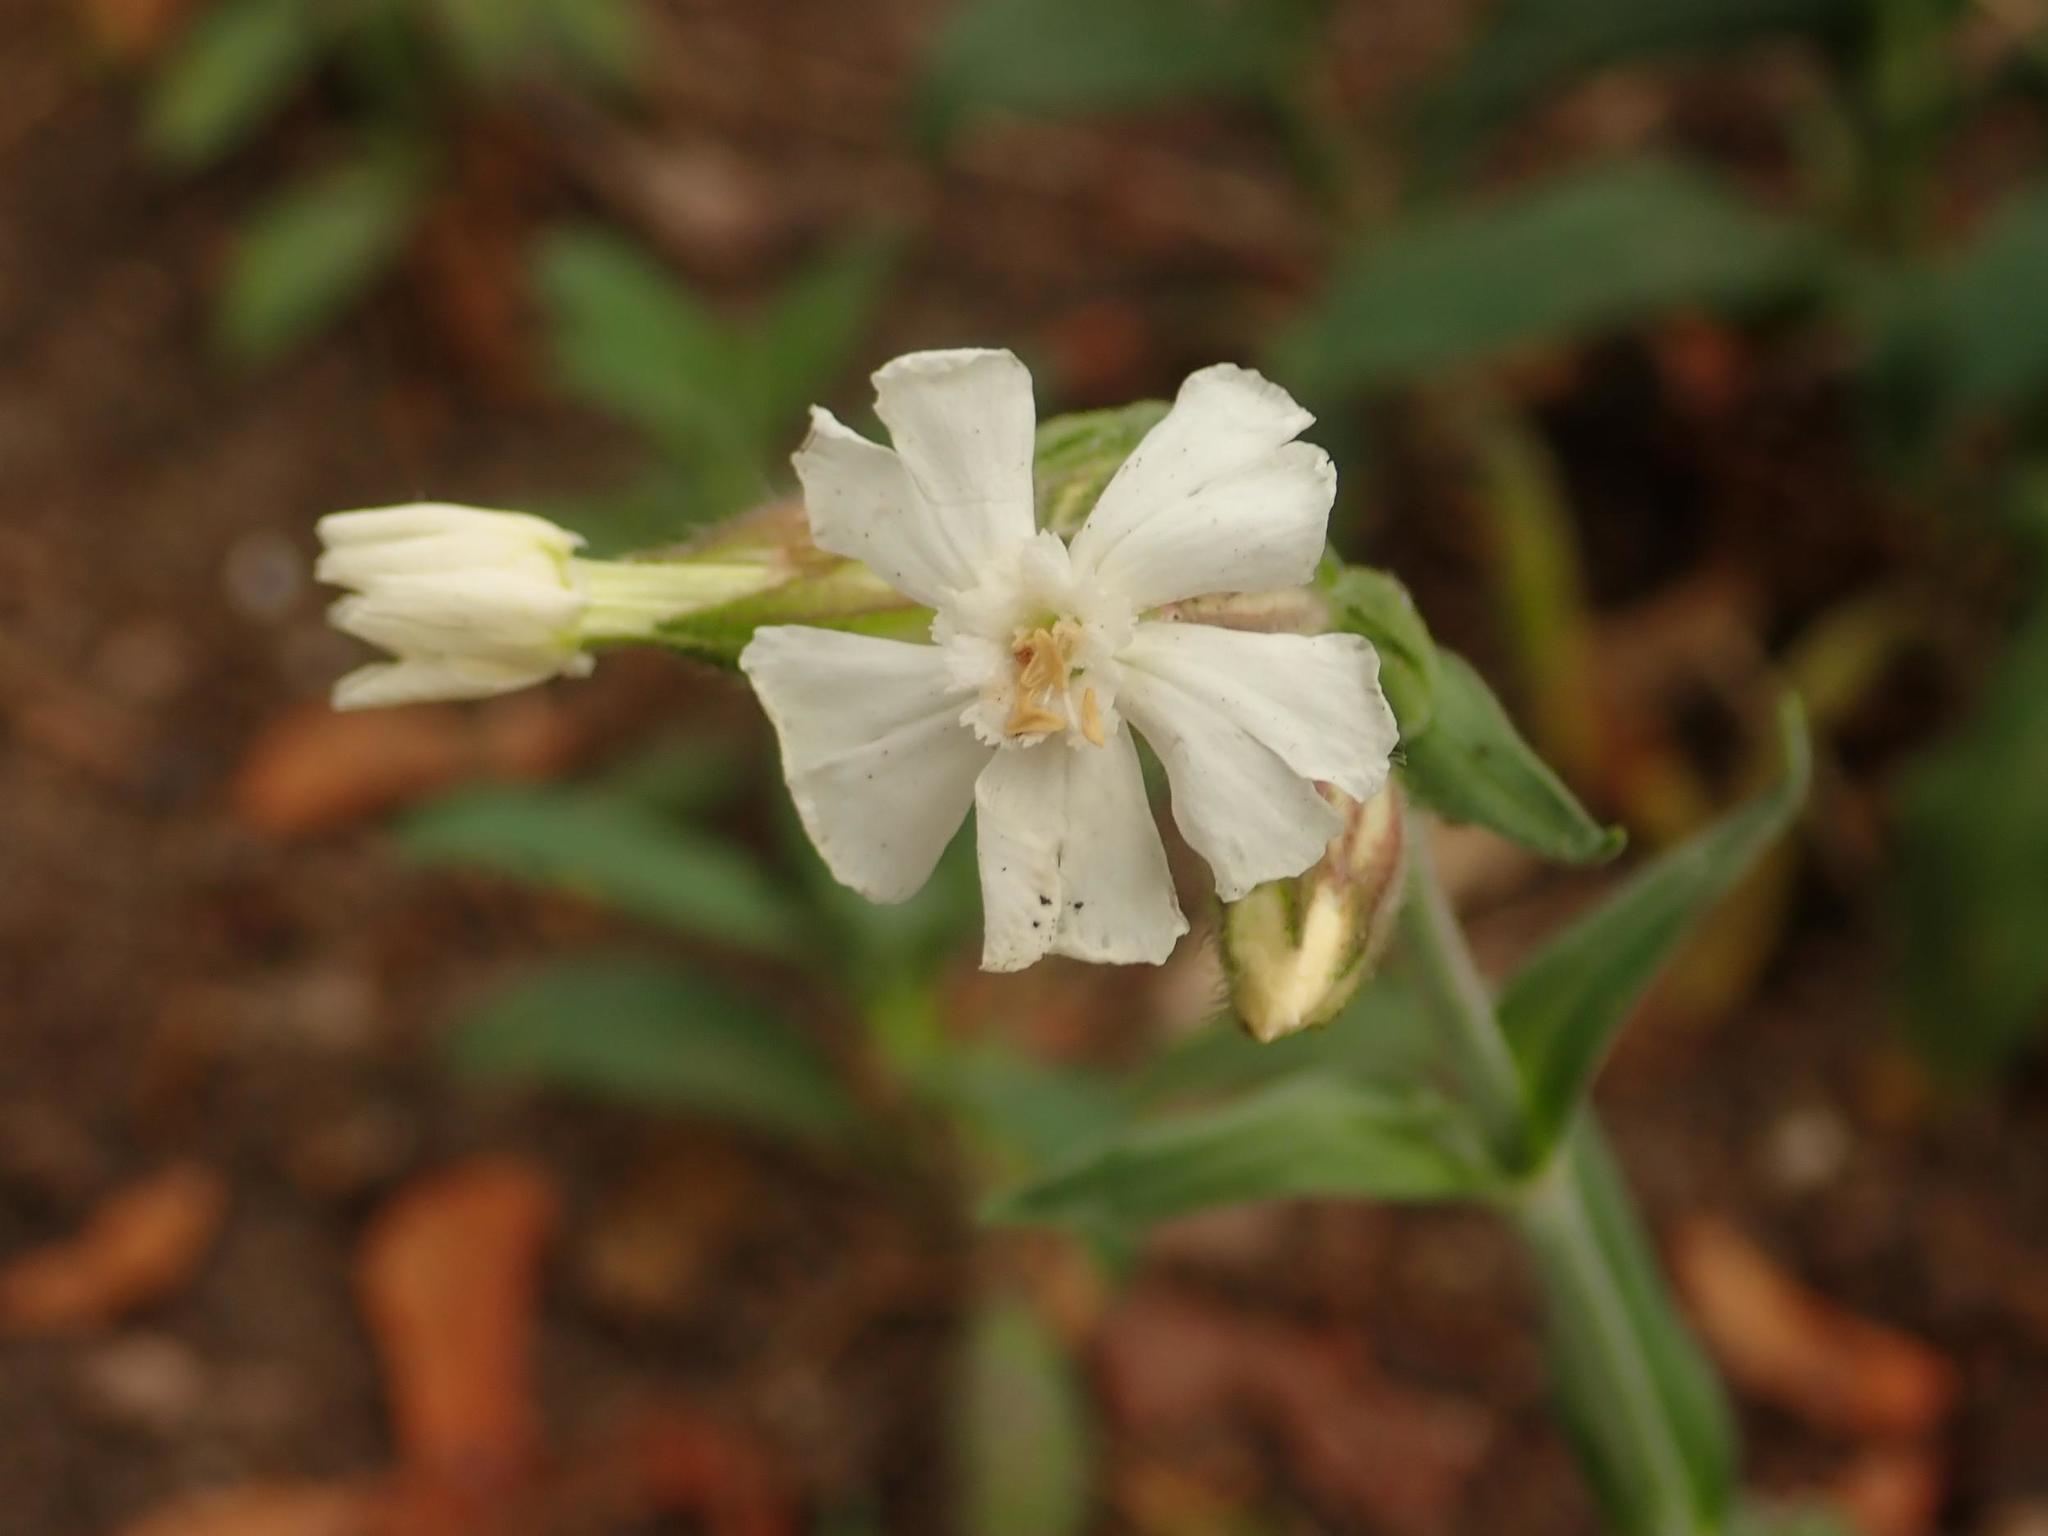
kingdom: Plantae
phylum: Tracheophyta
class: Magnoliopsida
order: Caryophyllales
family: Caryophyllaceae
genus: Silene
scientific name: Silene latifolia
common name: White campion
